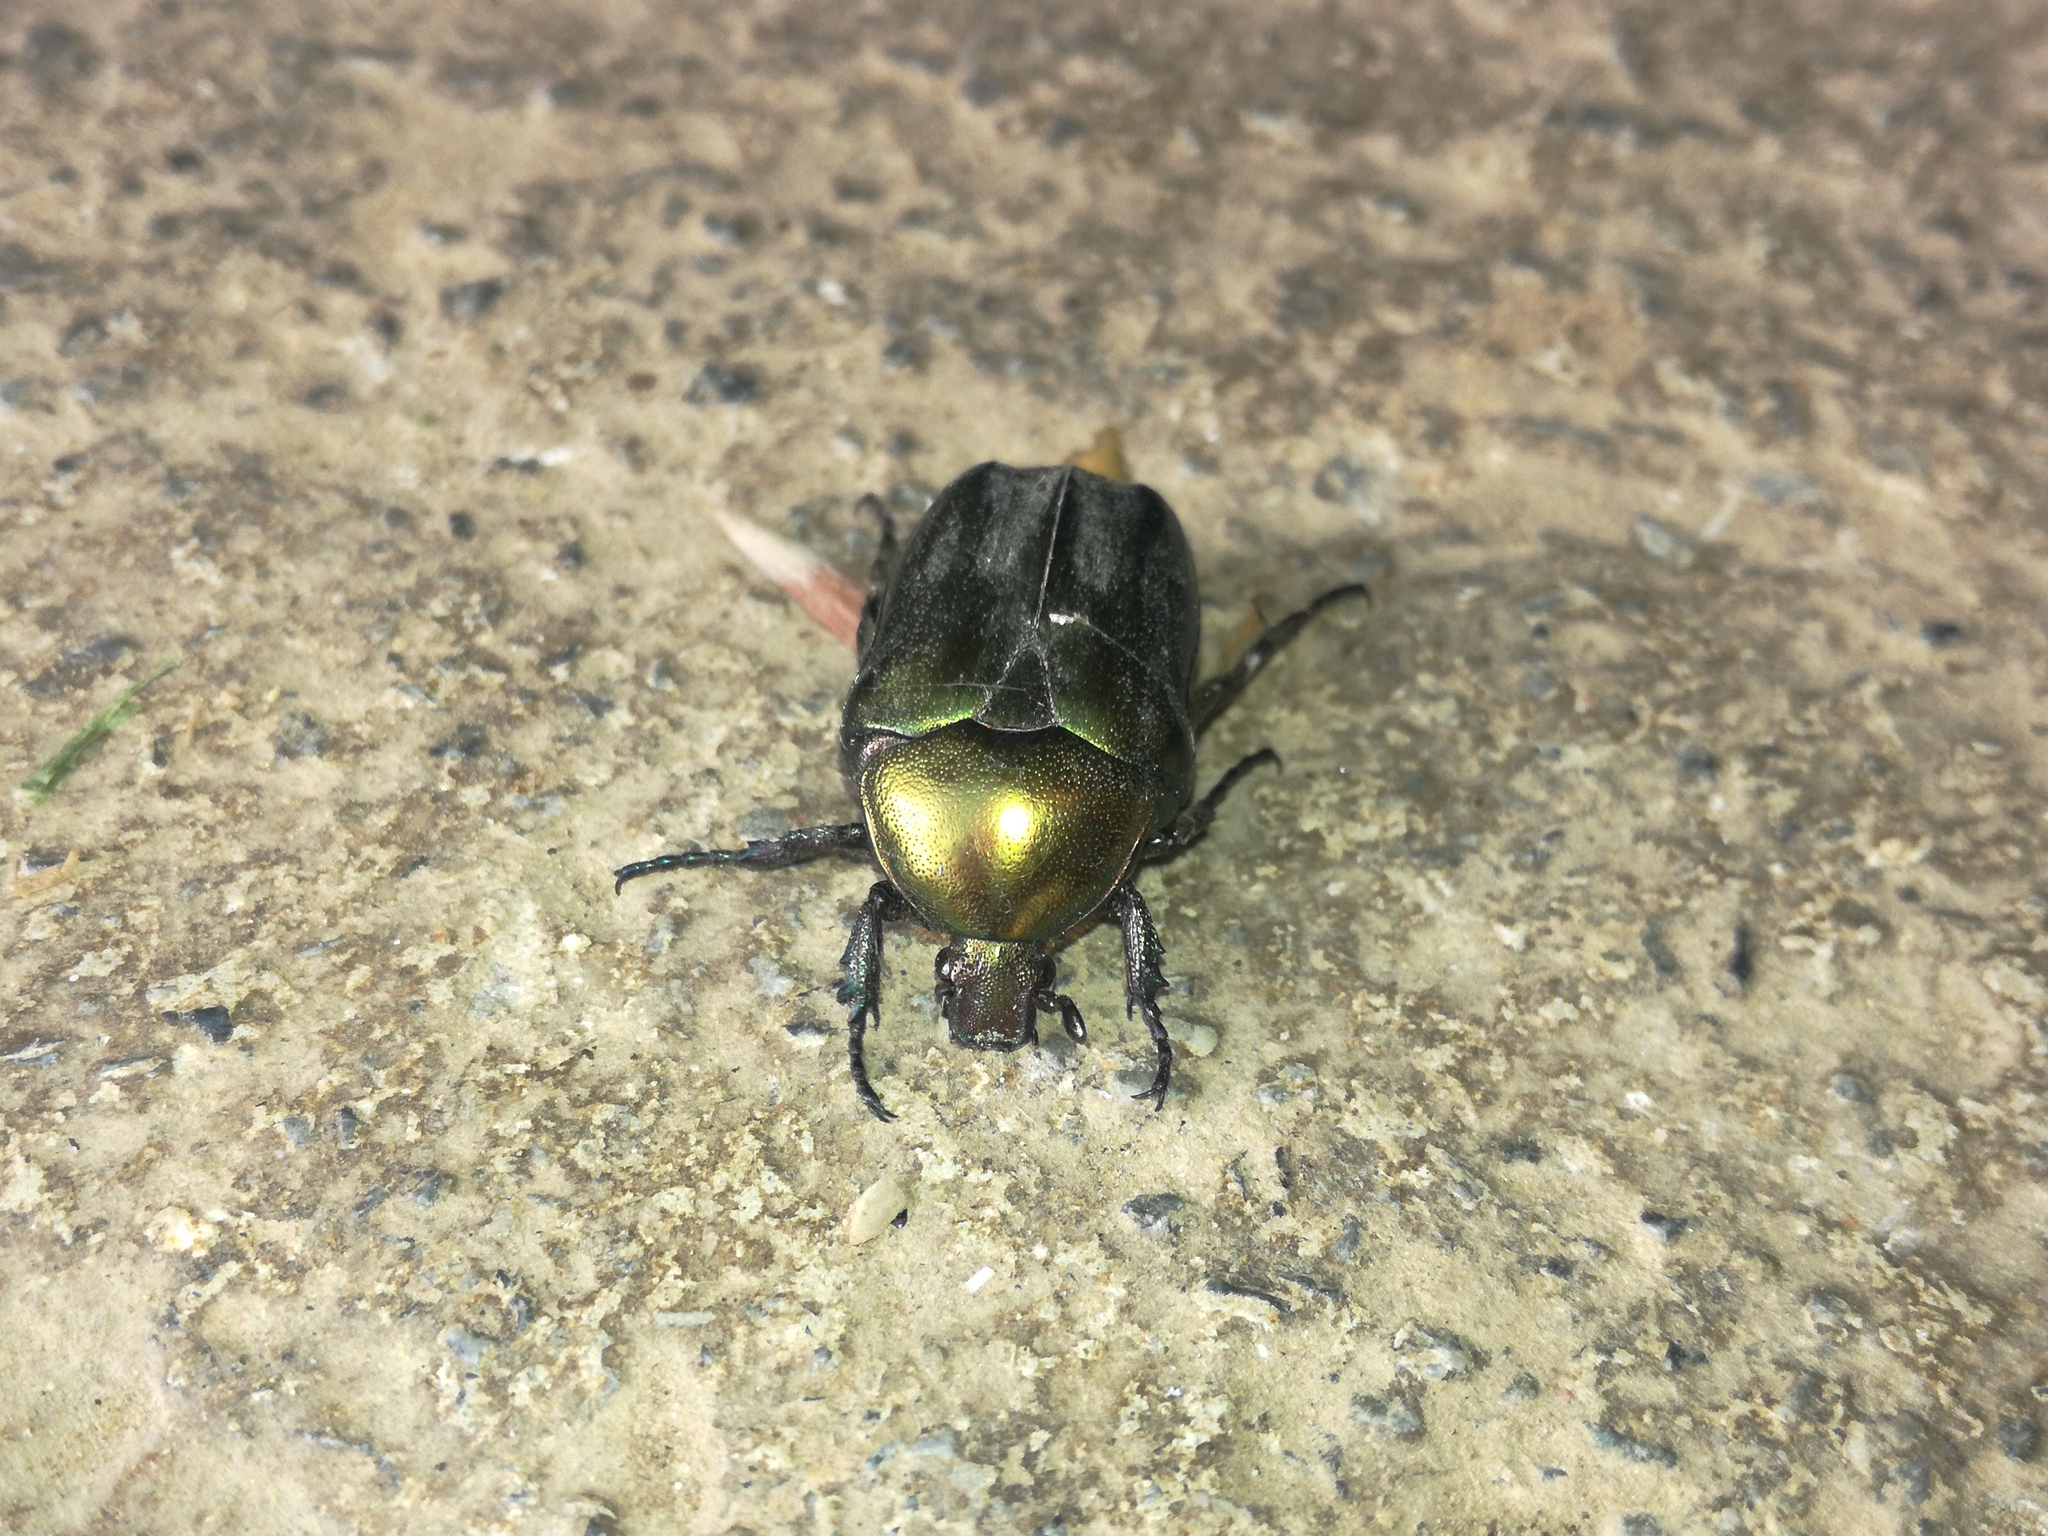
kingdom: Animalia
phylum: Arthropoda
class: Insecta
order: Coleoptera
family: Scarabaeidae
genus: Protaetia
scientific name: Protaetia cuprea
